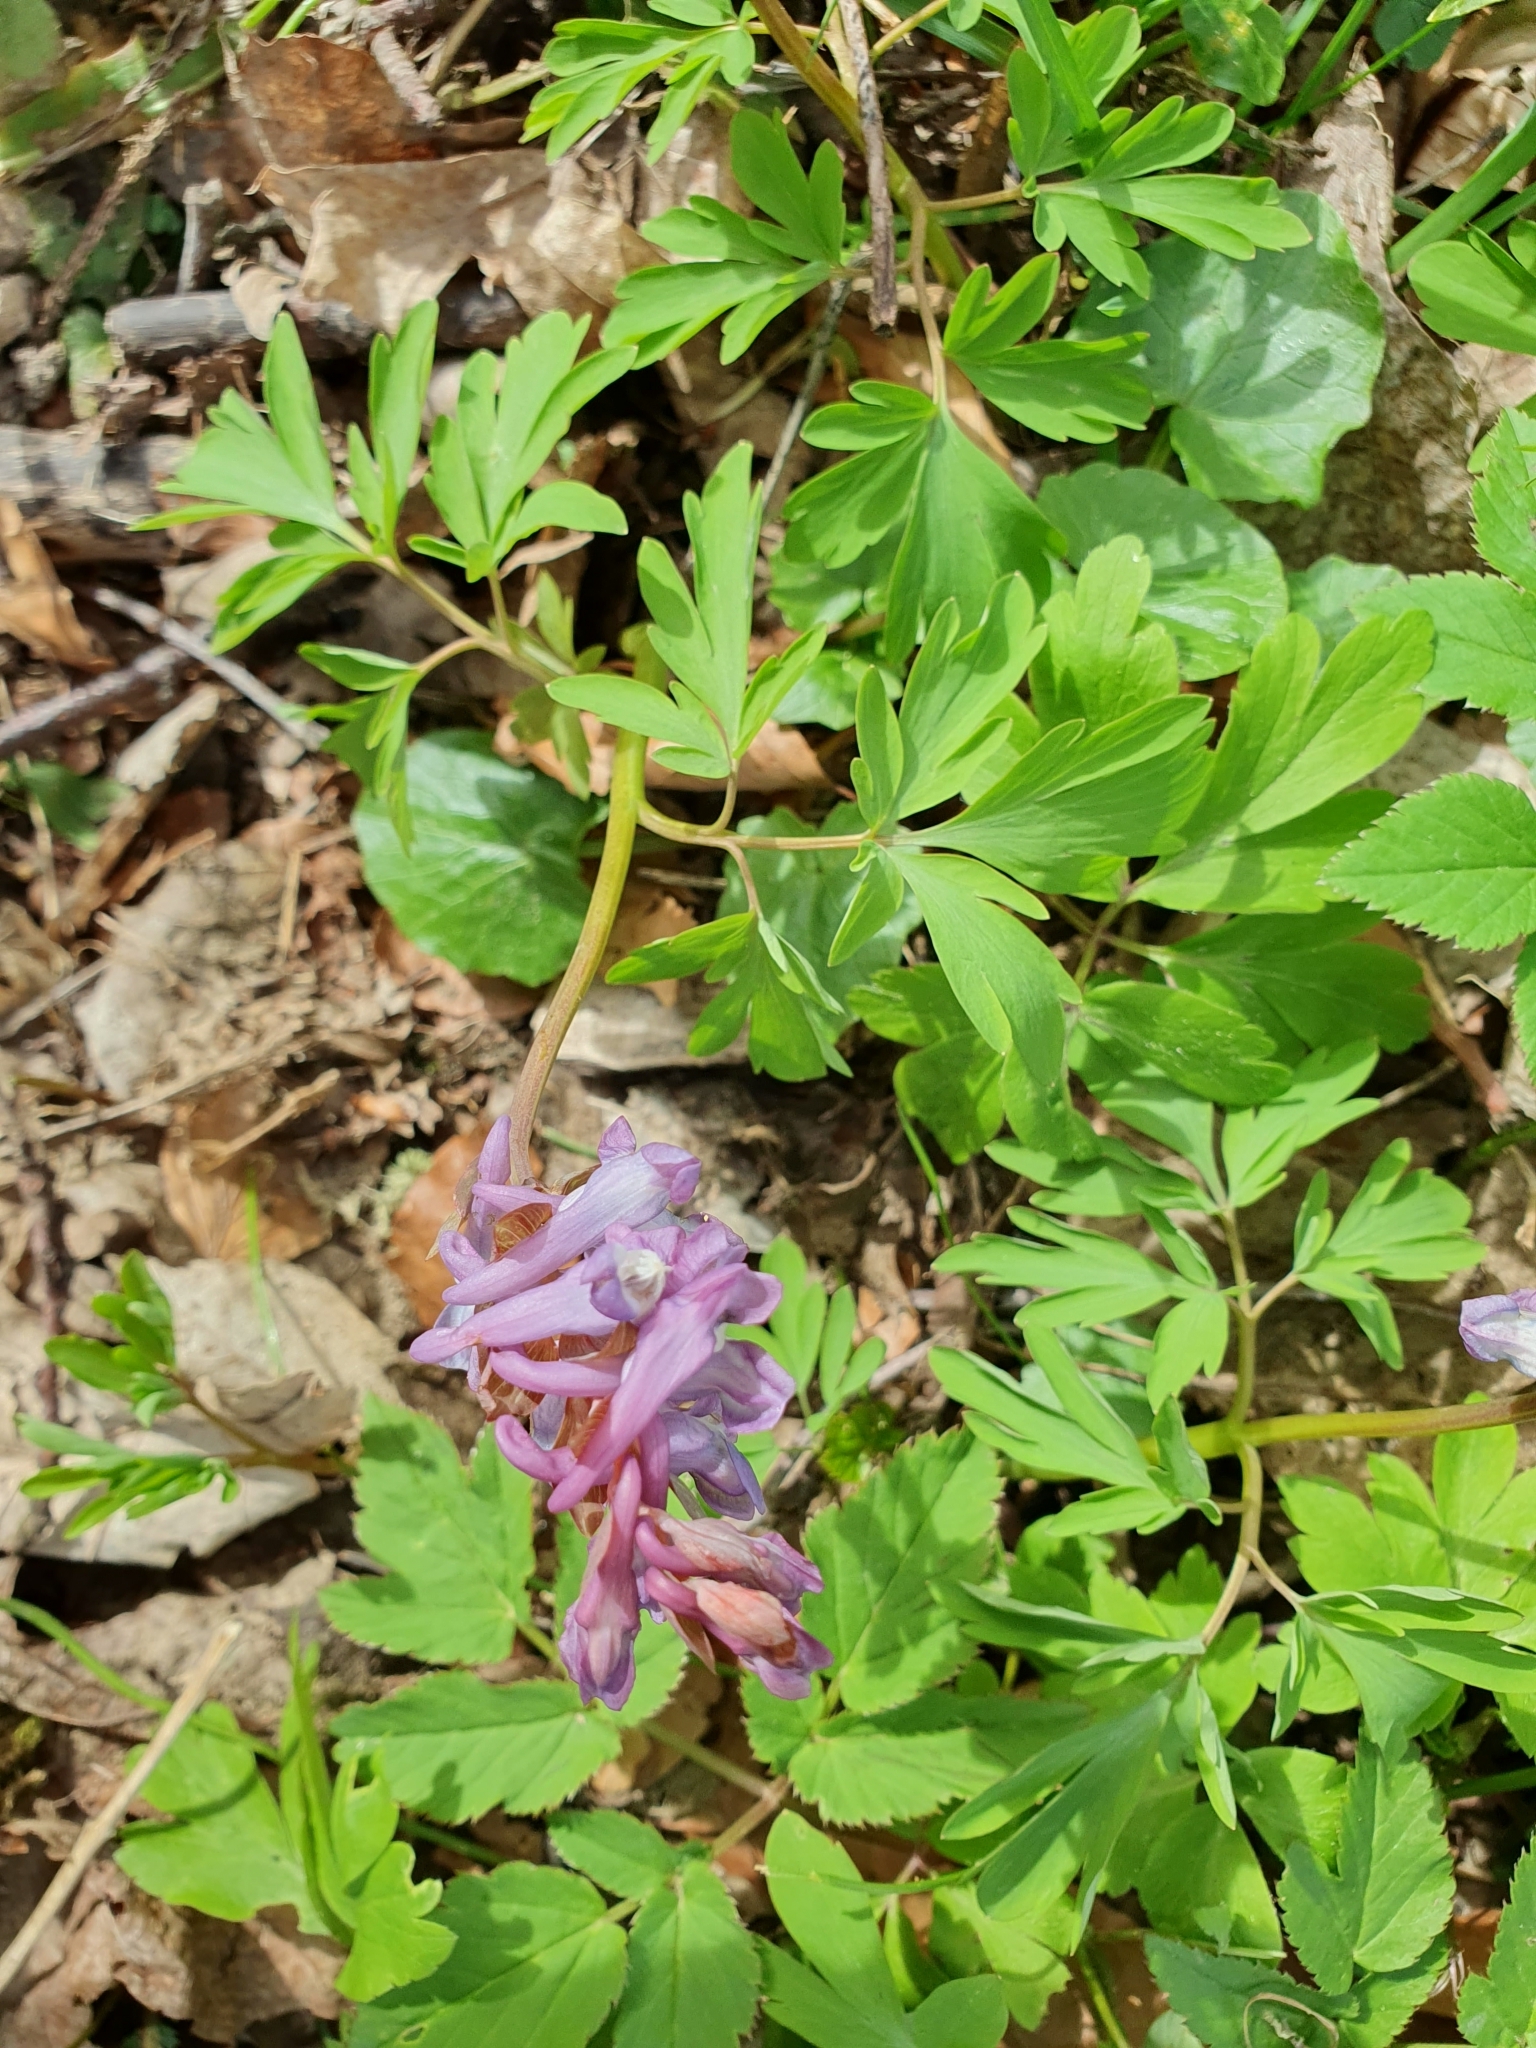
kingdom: Plantae
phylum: Tracheophyta
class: Magnoliopsida
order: Ranunculales
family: Papaveraceae
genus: Corydalis
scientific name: Corydalis cava
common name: Hollowroot
